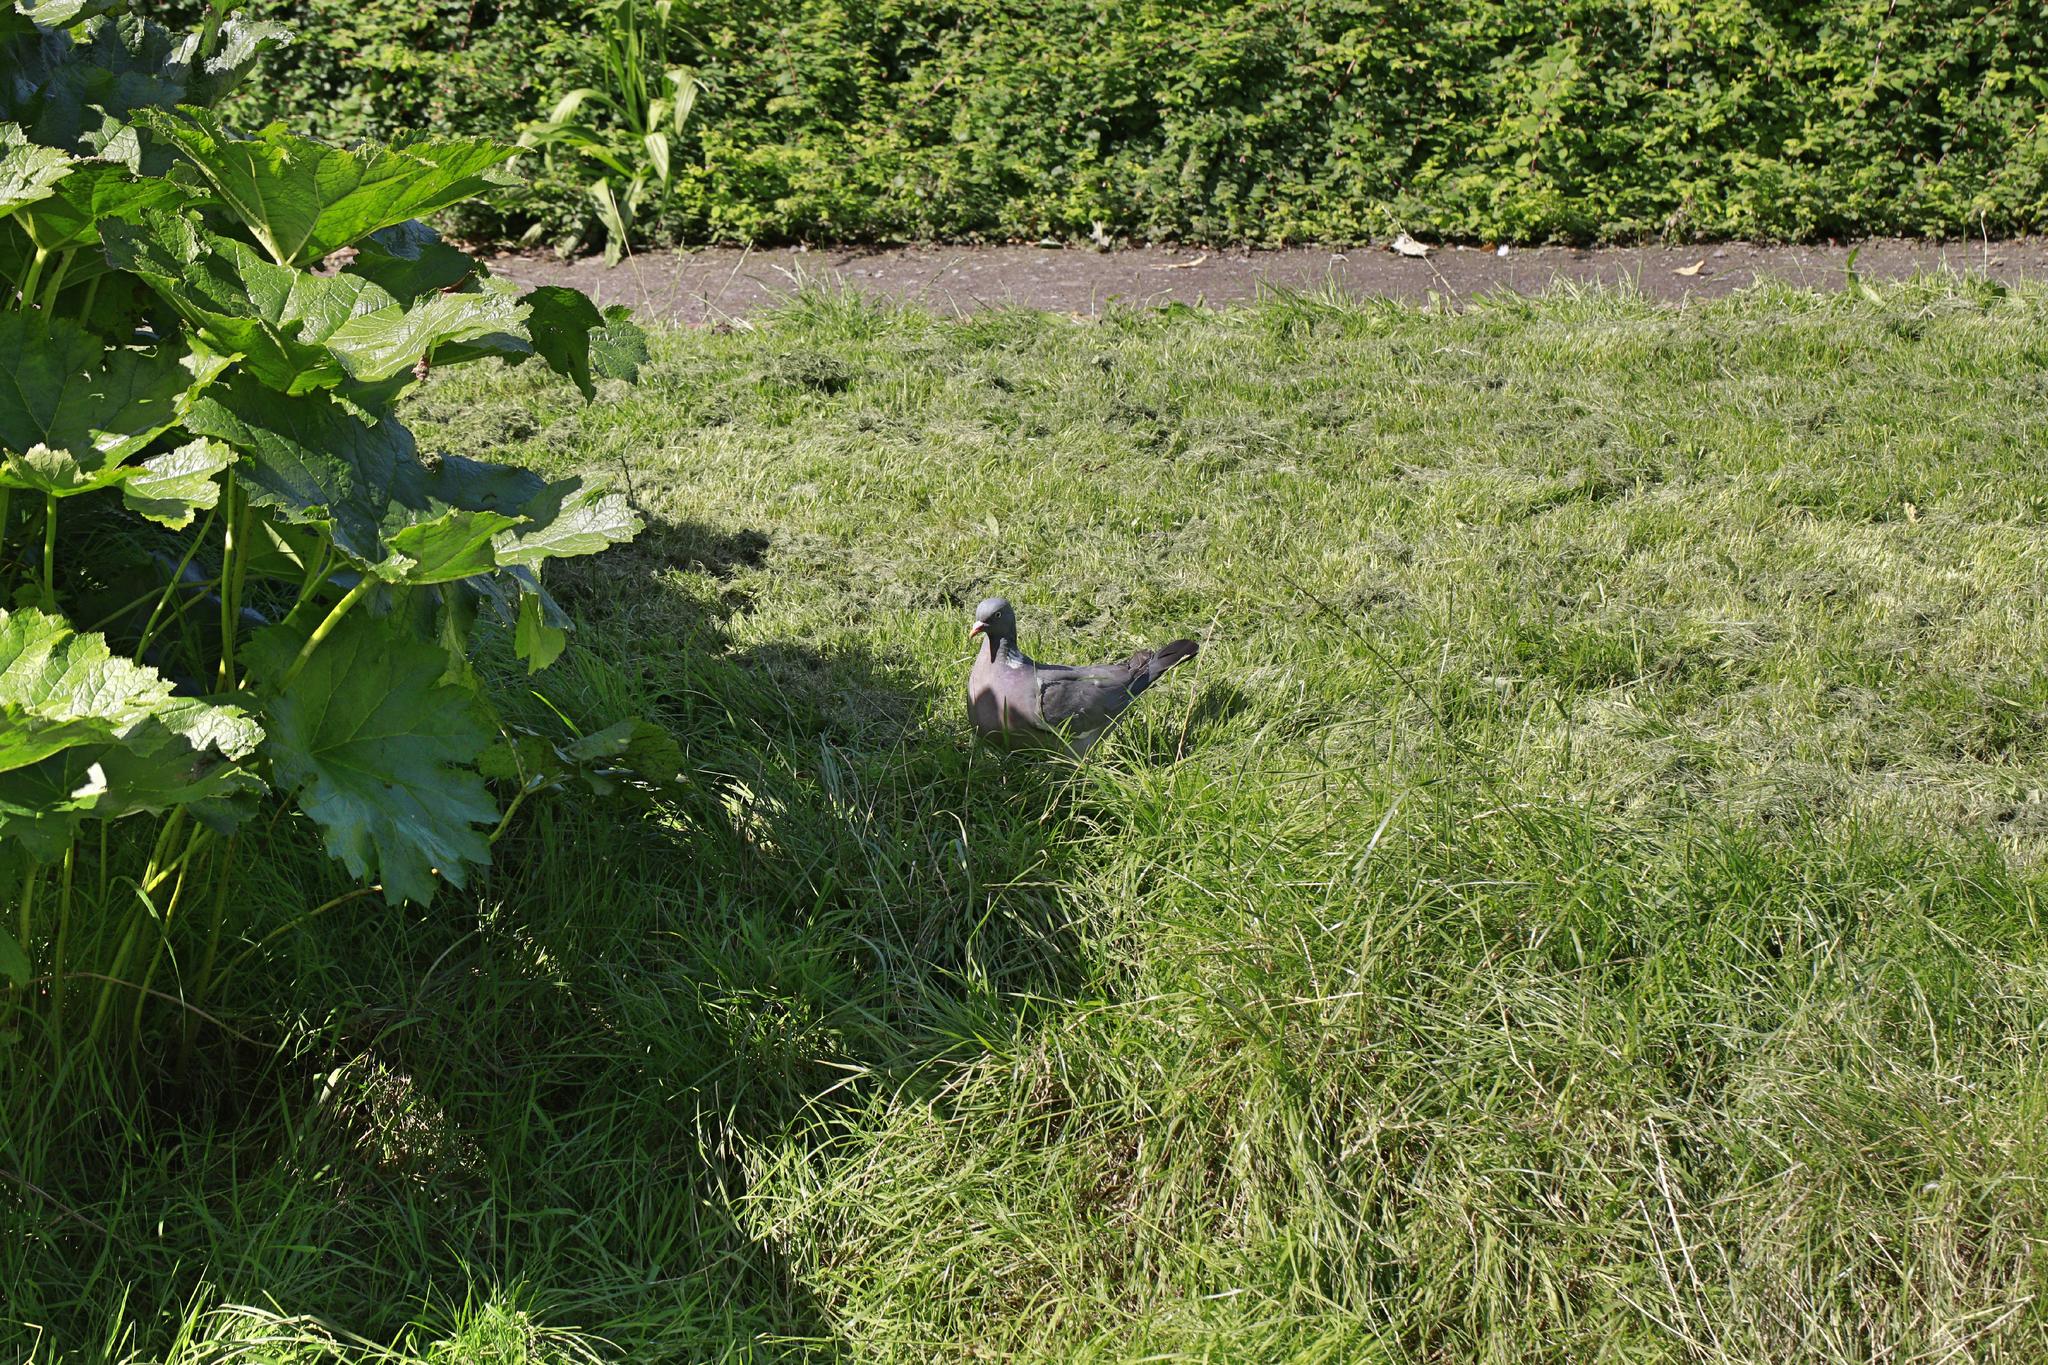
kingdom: Animalia
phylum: Chordata
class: Aves
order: Columbiformes
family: Columbidae
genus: Columba
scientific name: Columba palumbus
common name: Common wood pigeon
